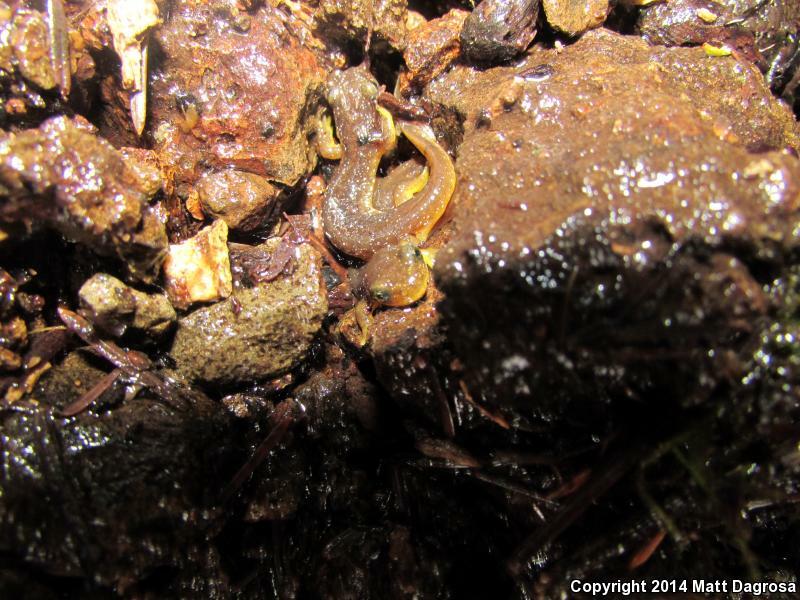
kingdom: Animalia
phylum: Chordata
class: Amphibia
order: Caudata
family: Rhyacotritonidae
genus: Rhyacotriton
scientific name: Rhyacotriton kezeri
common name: Columbia torrent salamander
